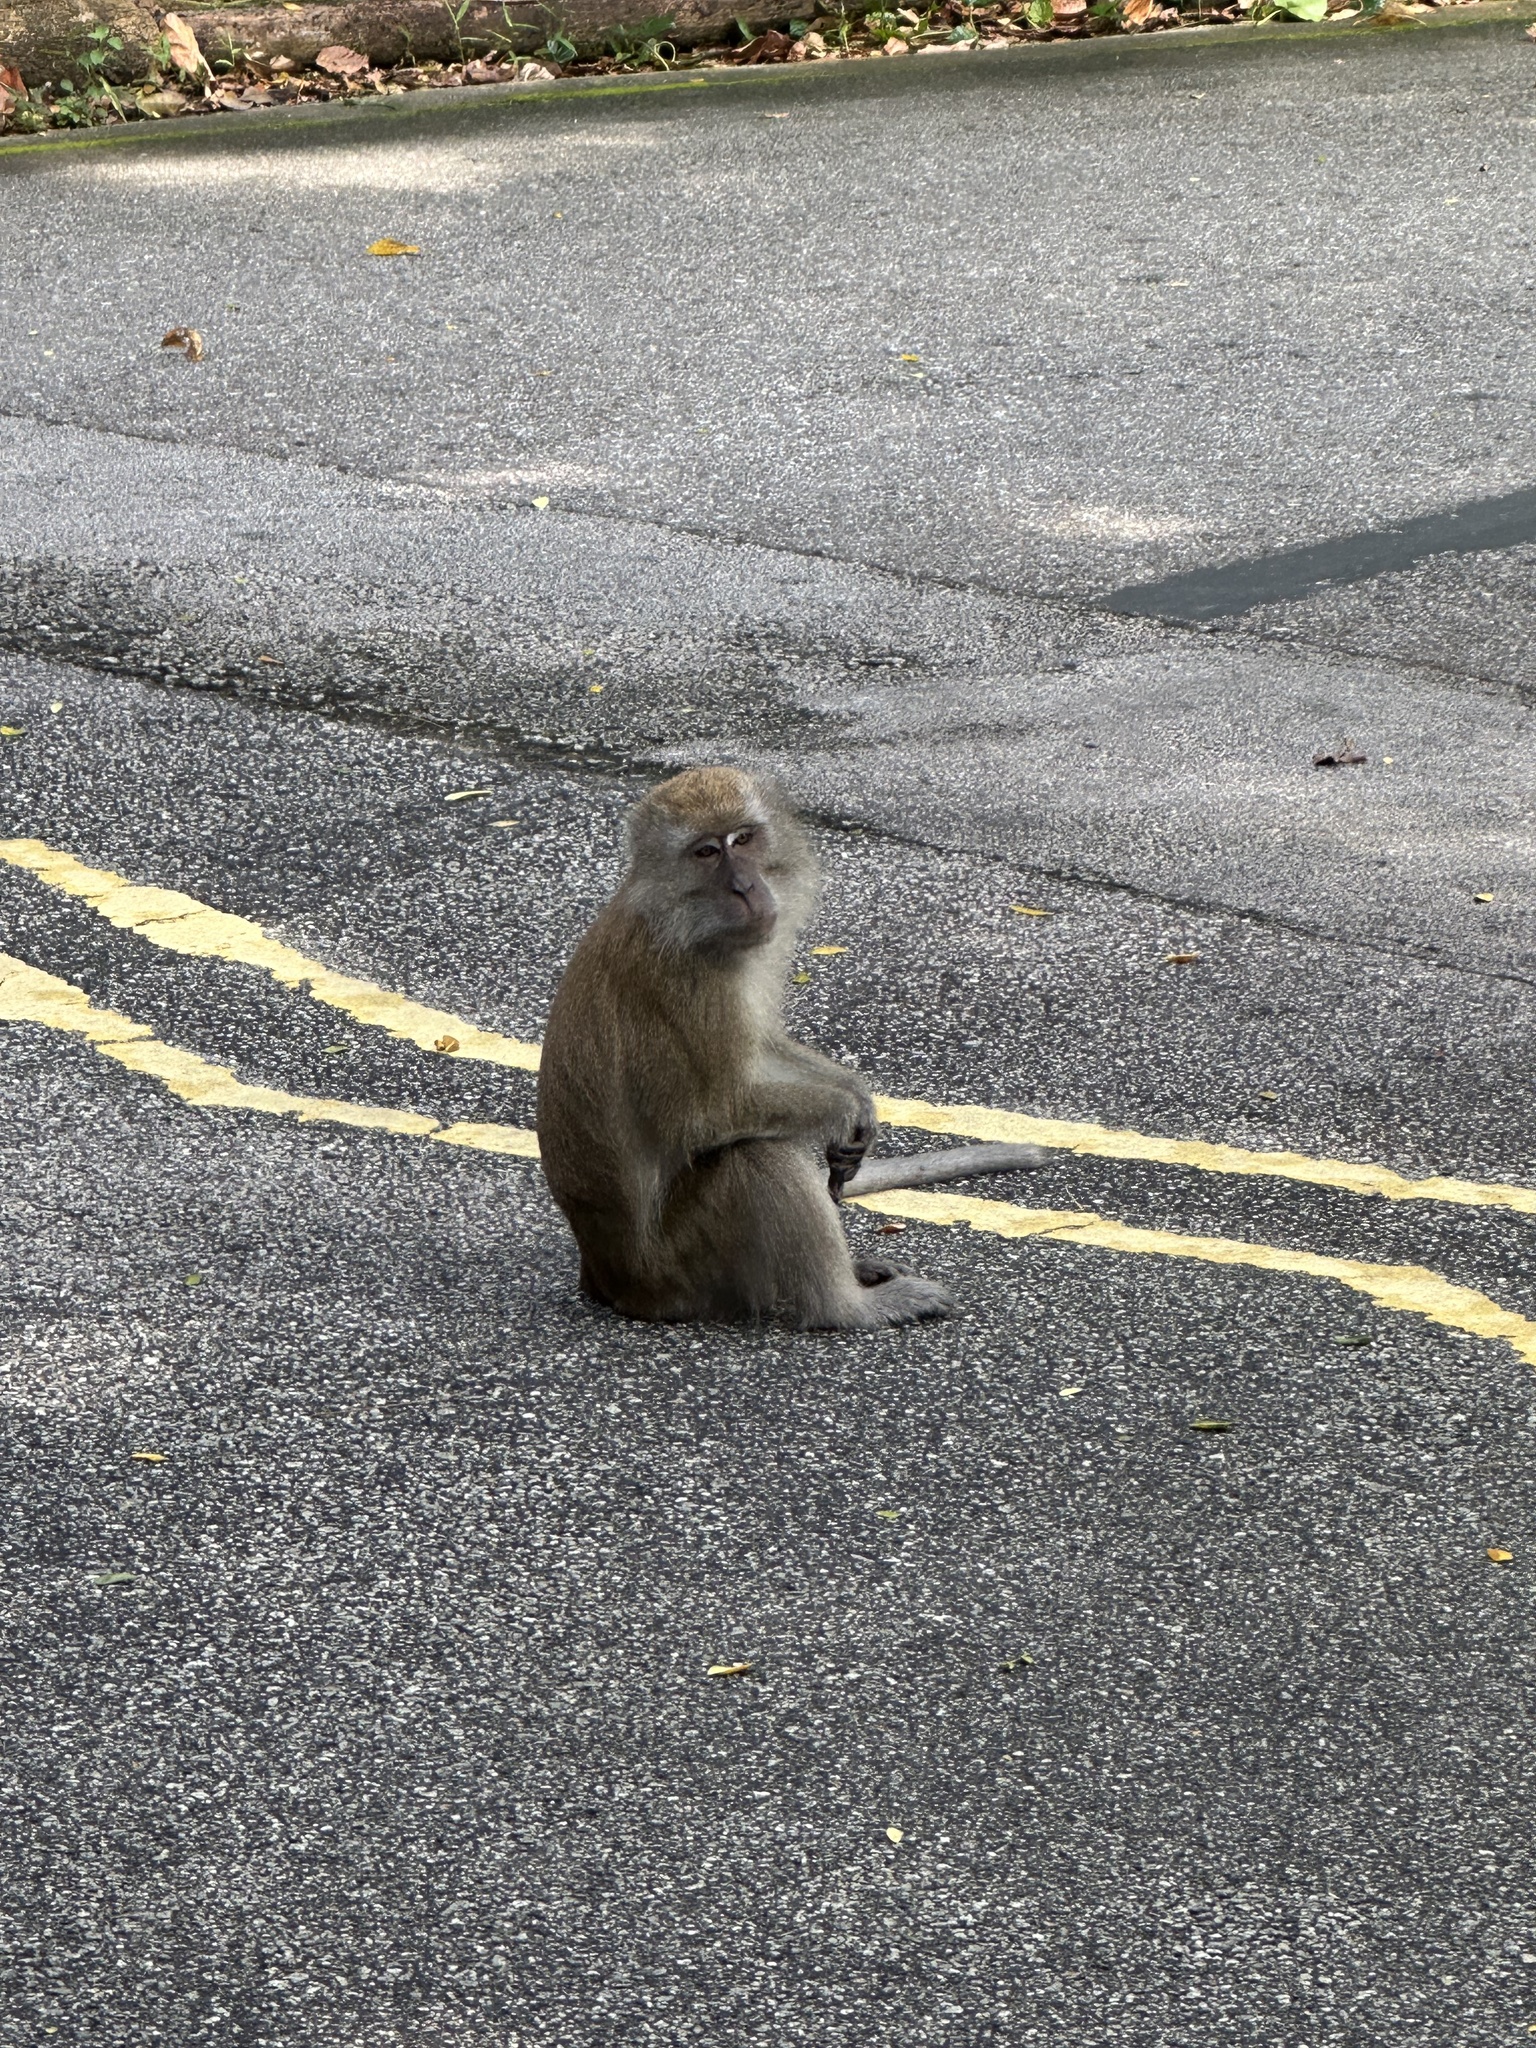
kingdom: Animalia
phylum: Chordata
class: Mammalia
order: Primates
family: Cercopithecidae
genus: Macaca
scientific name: Macaca fascicularis
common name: Crab-eating macaque
